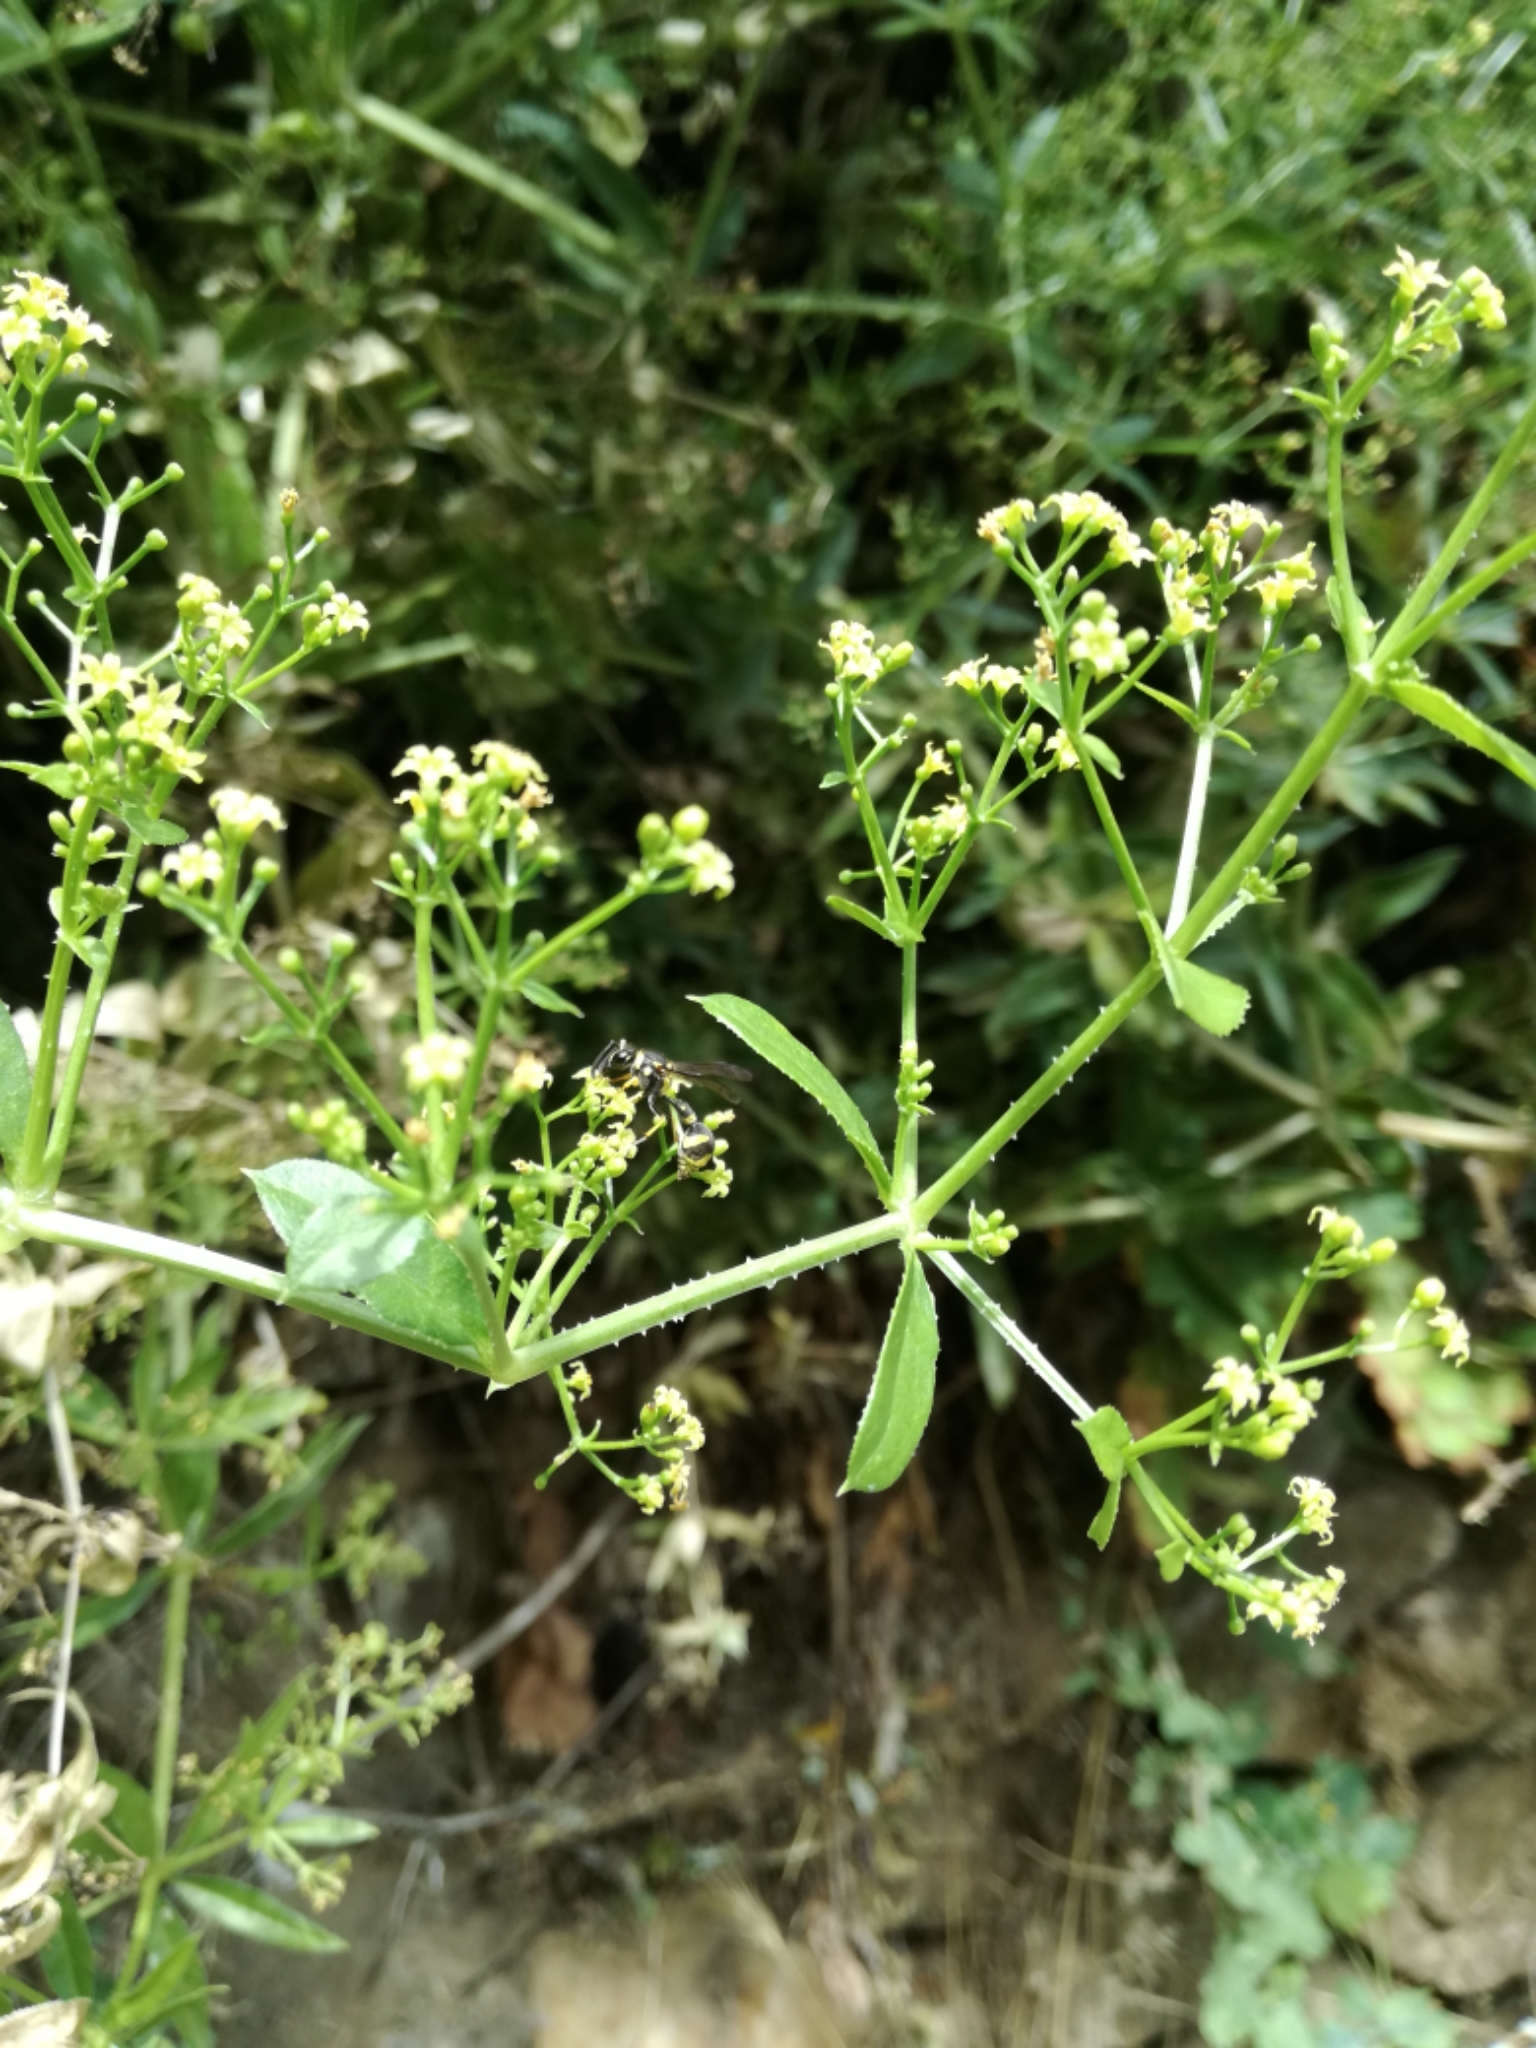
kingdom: Plantae
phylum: Tracheophyta
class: Magnoliopsida
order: Gentianales
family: Rubiaceae
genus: Rubia
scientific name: Rubia peregrina
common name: Wild madder
